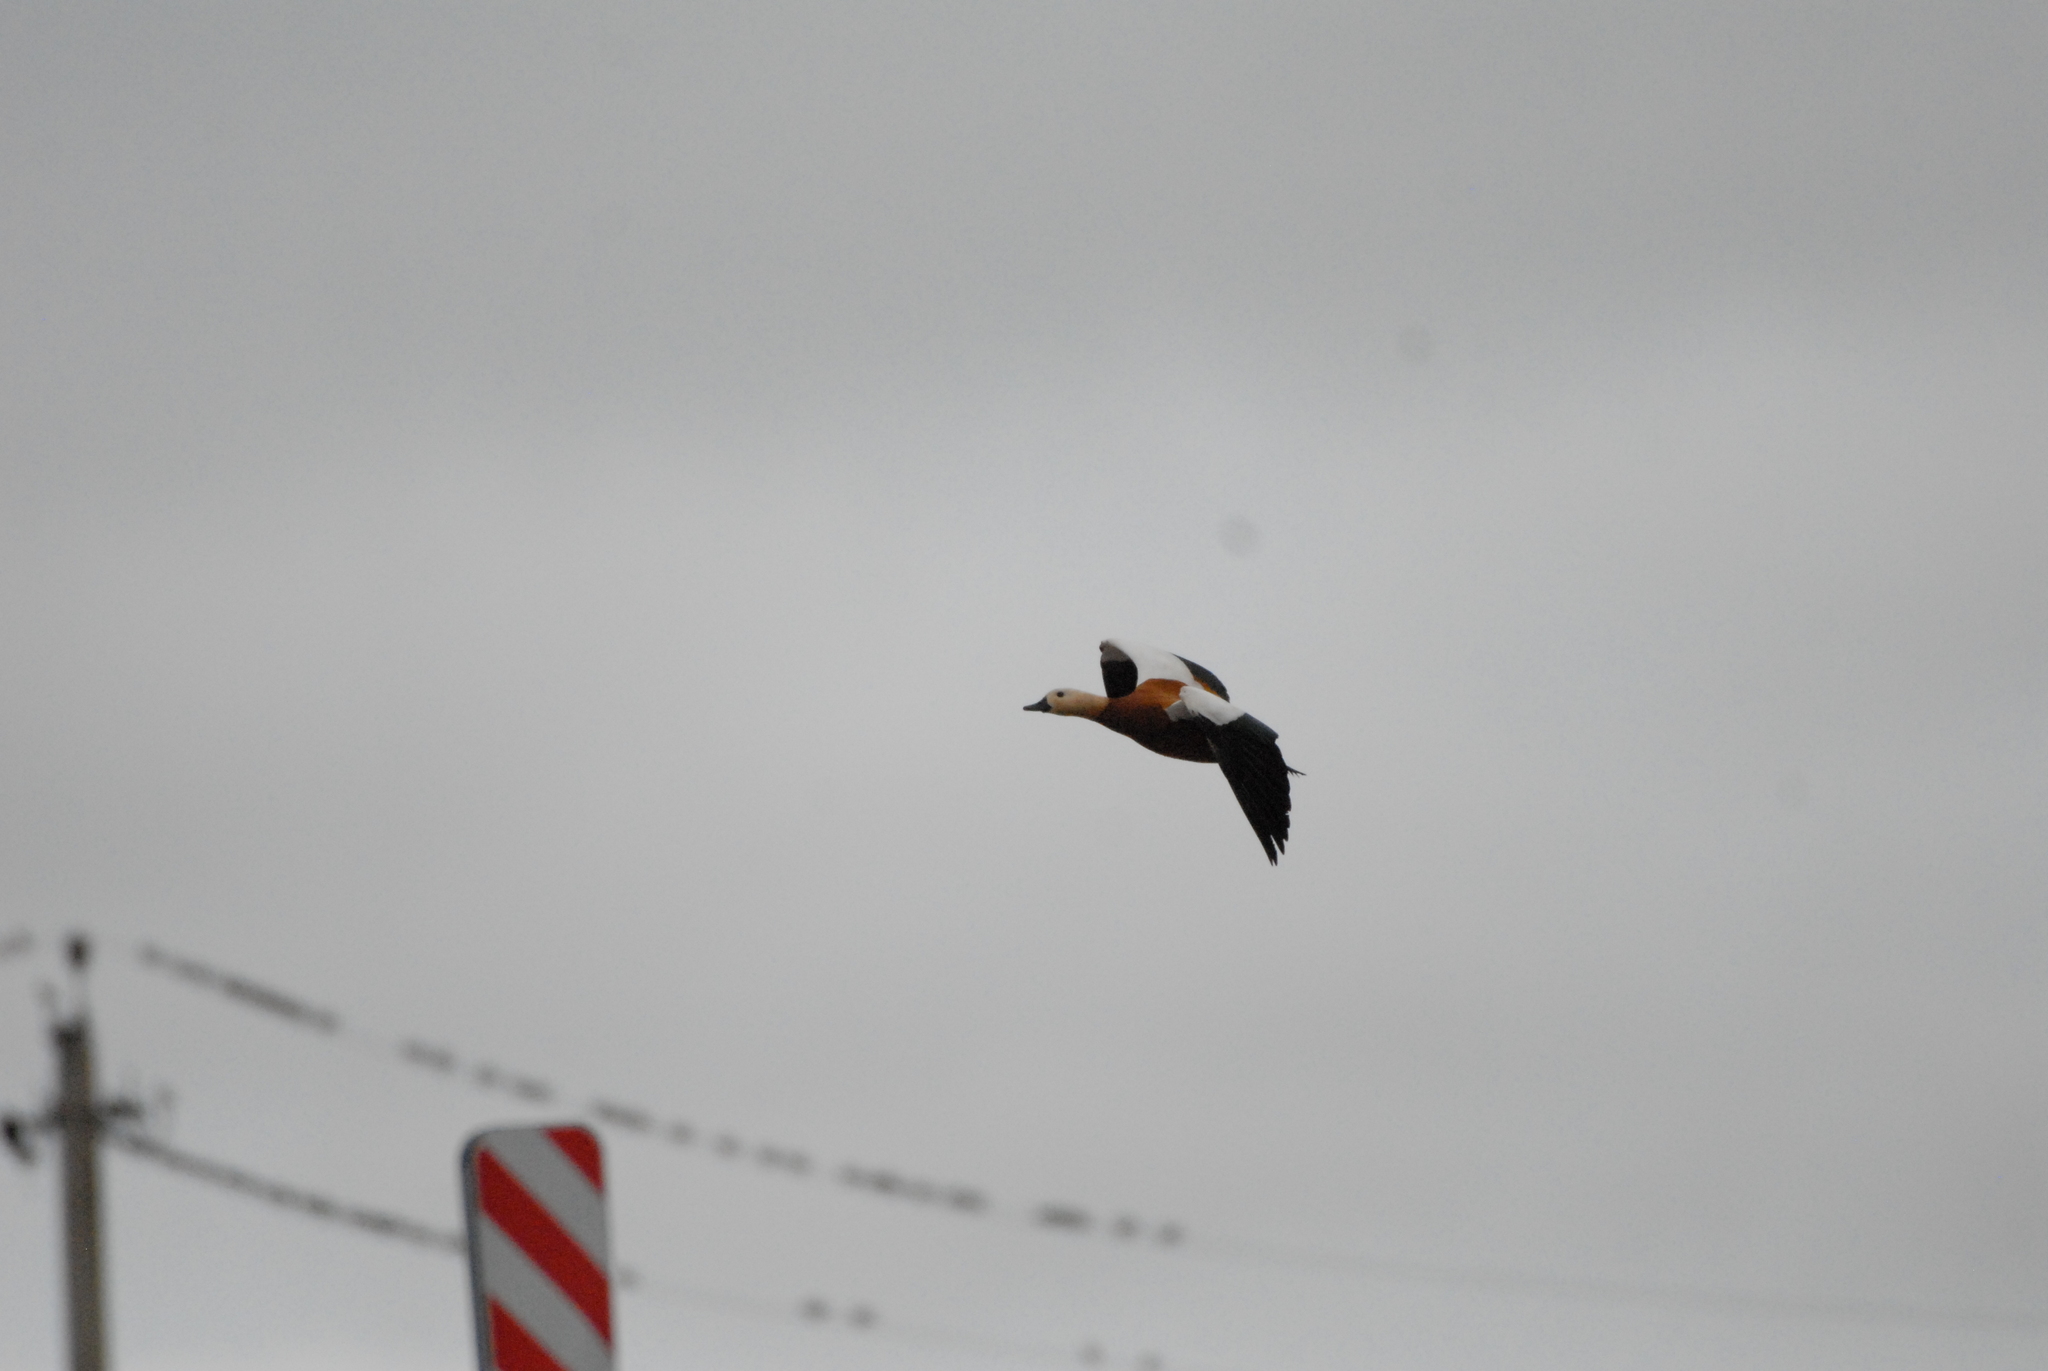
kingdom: Animalia
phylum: Chordata
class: Aves
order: Anseriformes
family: Anatidae
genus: Tadorna
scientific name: Tadorna ferruginea
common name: Ruddy shelduck
